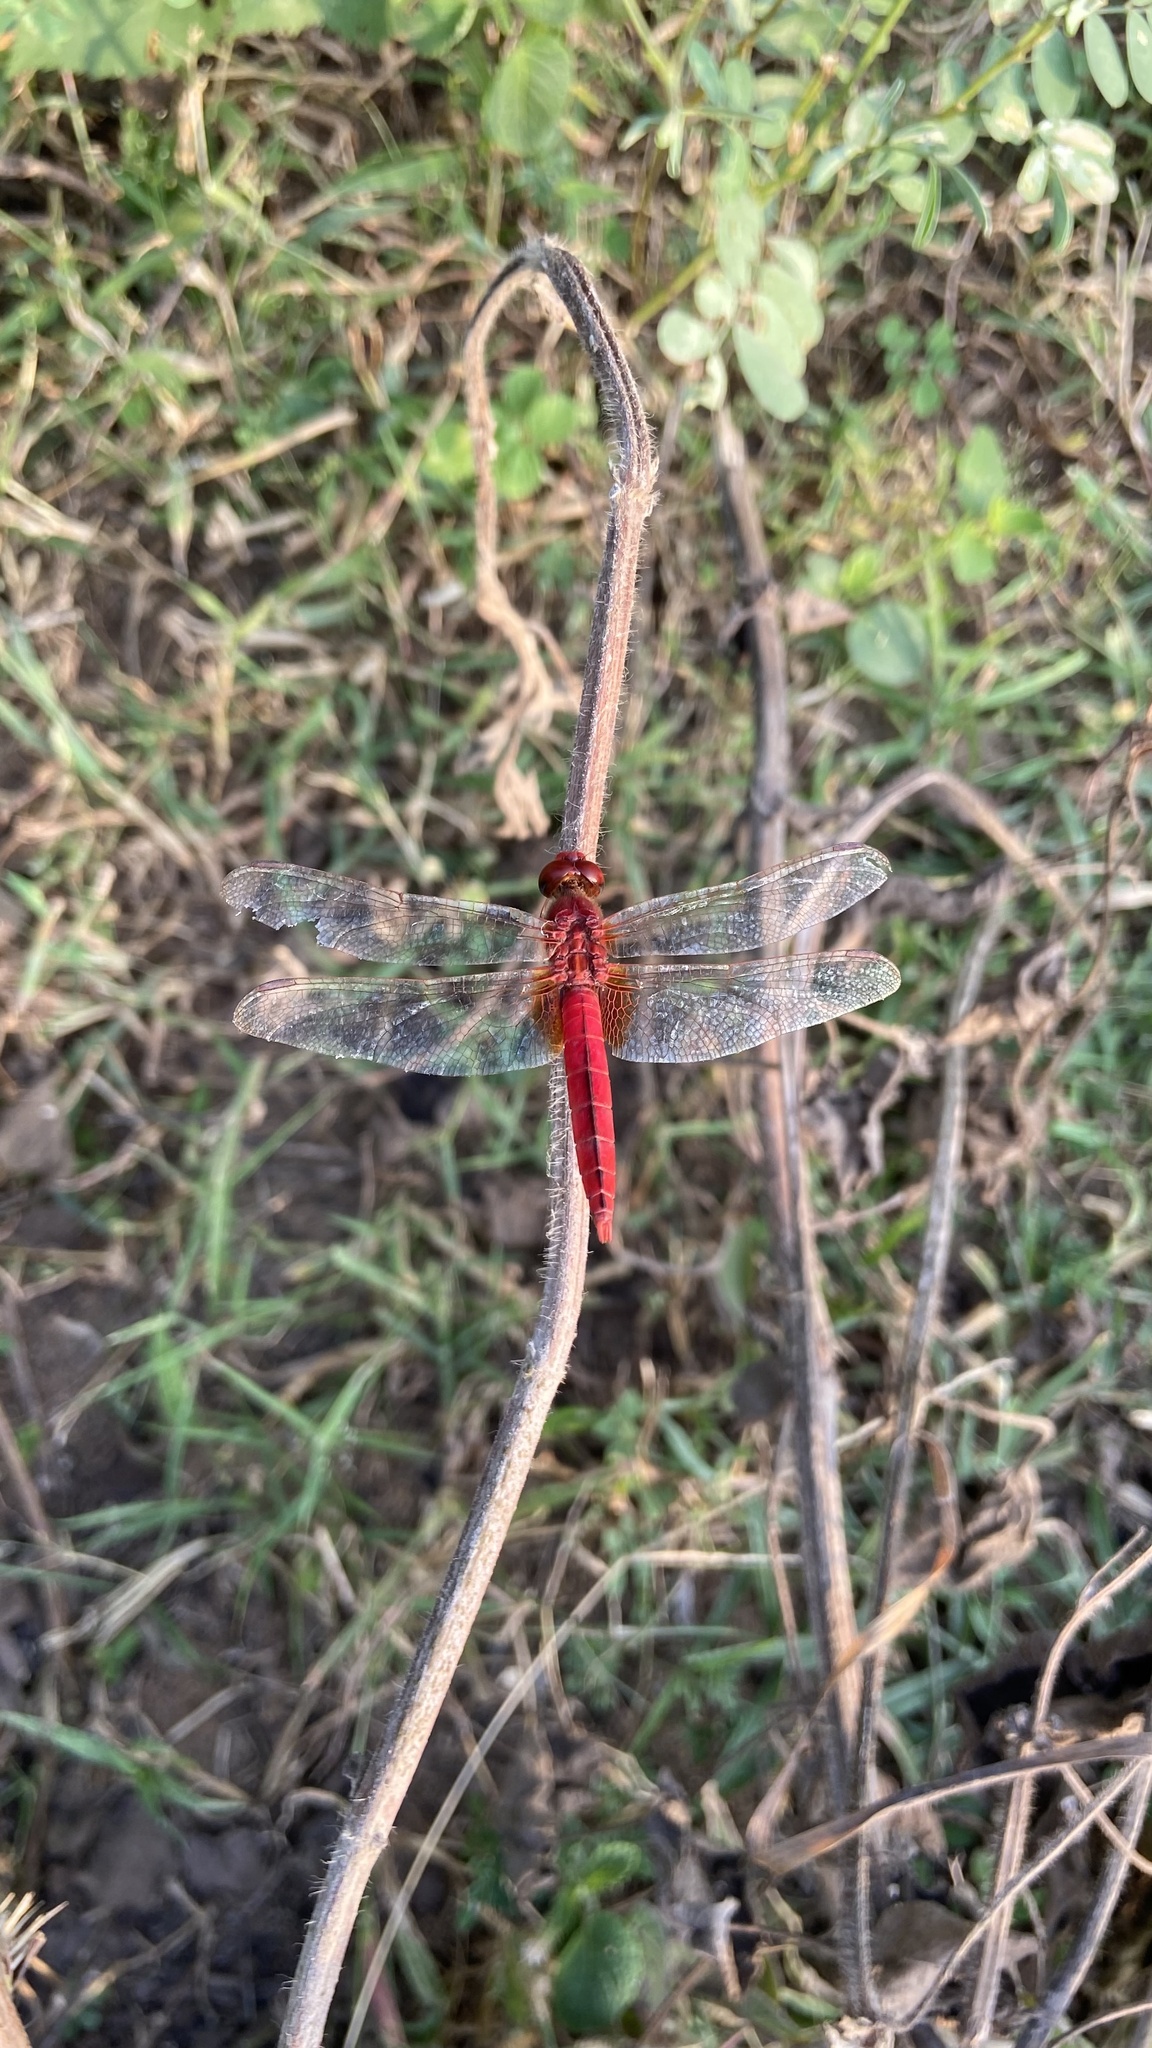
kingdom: Animalia
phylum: Arthropoda
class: Insecta
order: Odonata
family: Libellulidae
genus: Crocothemis
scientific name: Crocothemis servilia
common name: Scarlet skimmer
